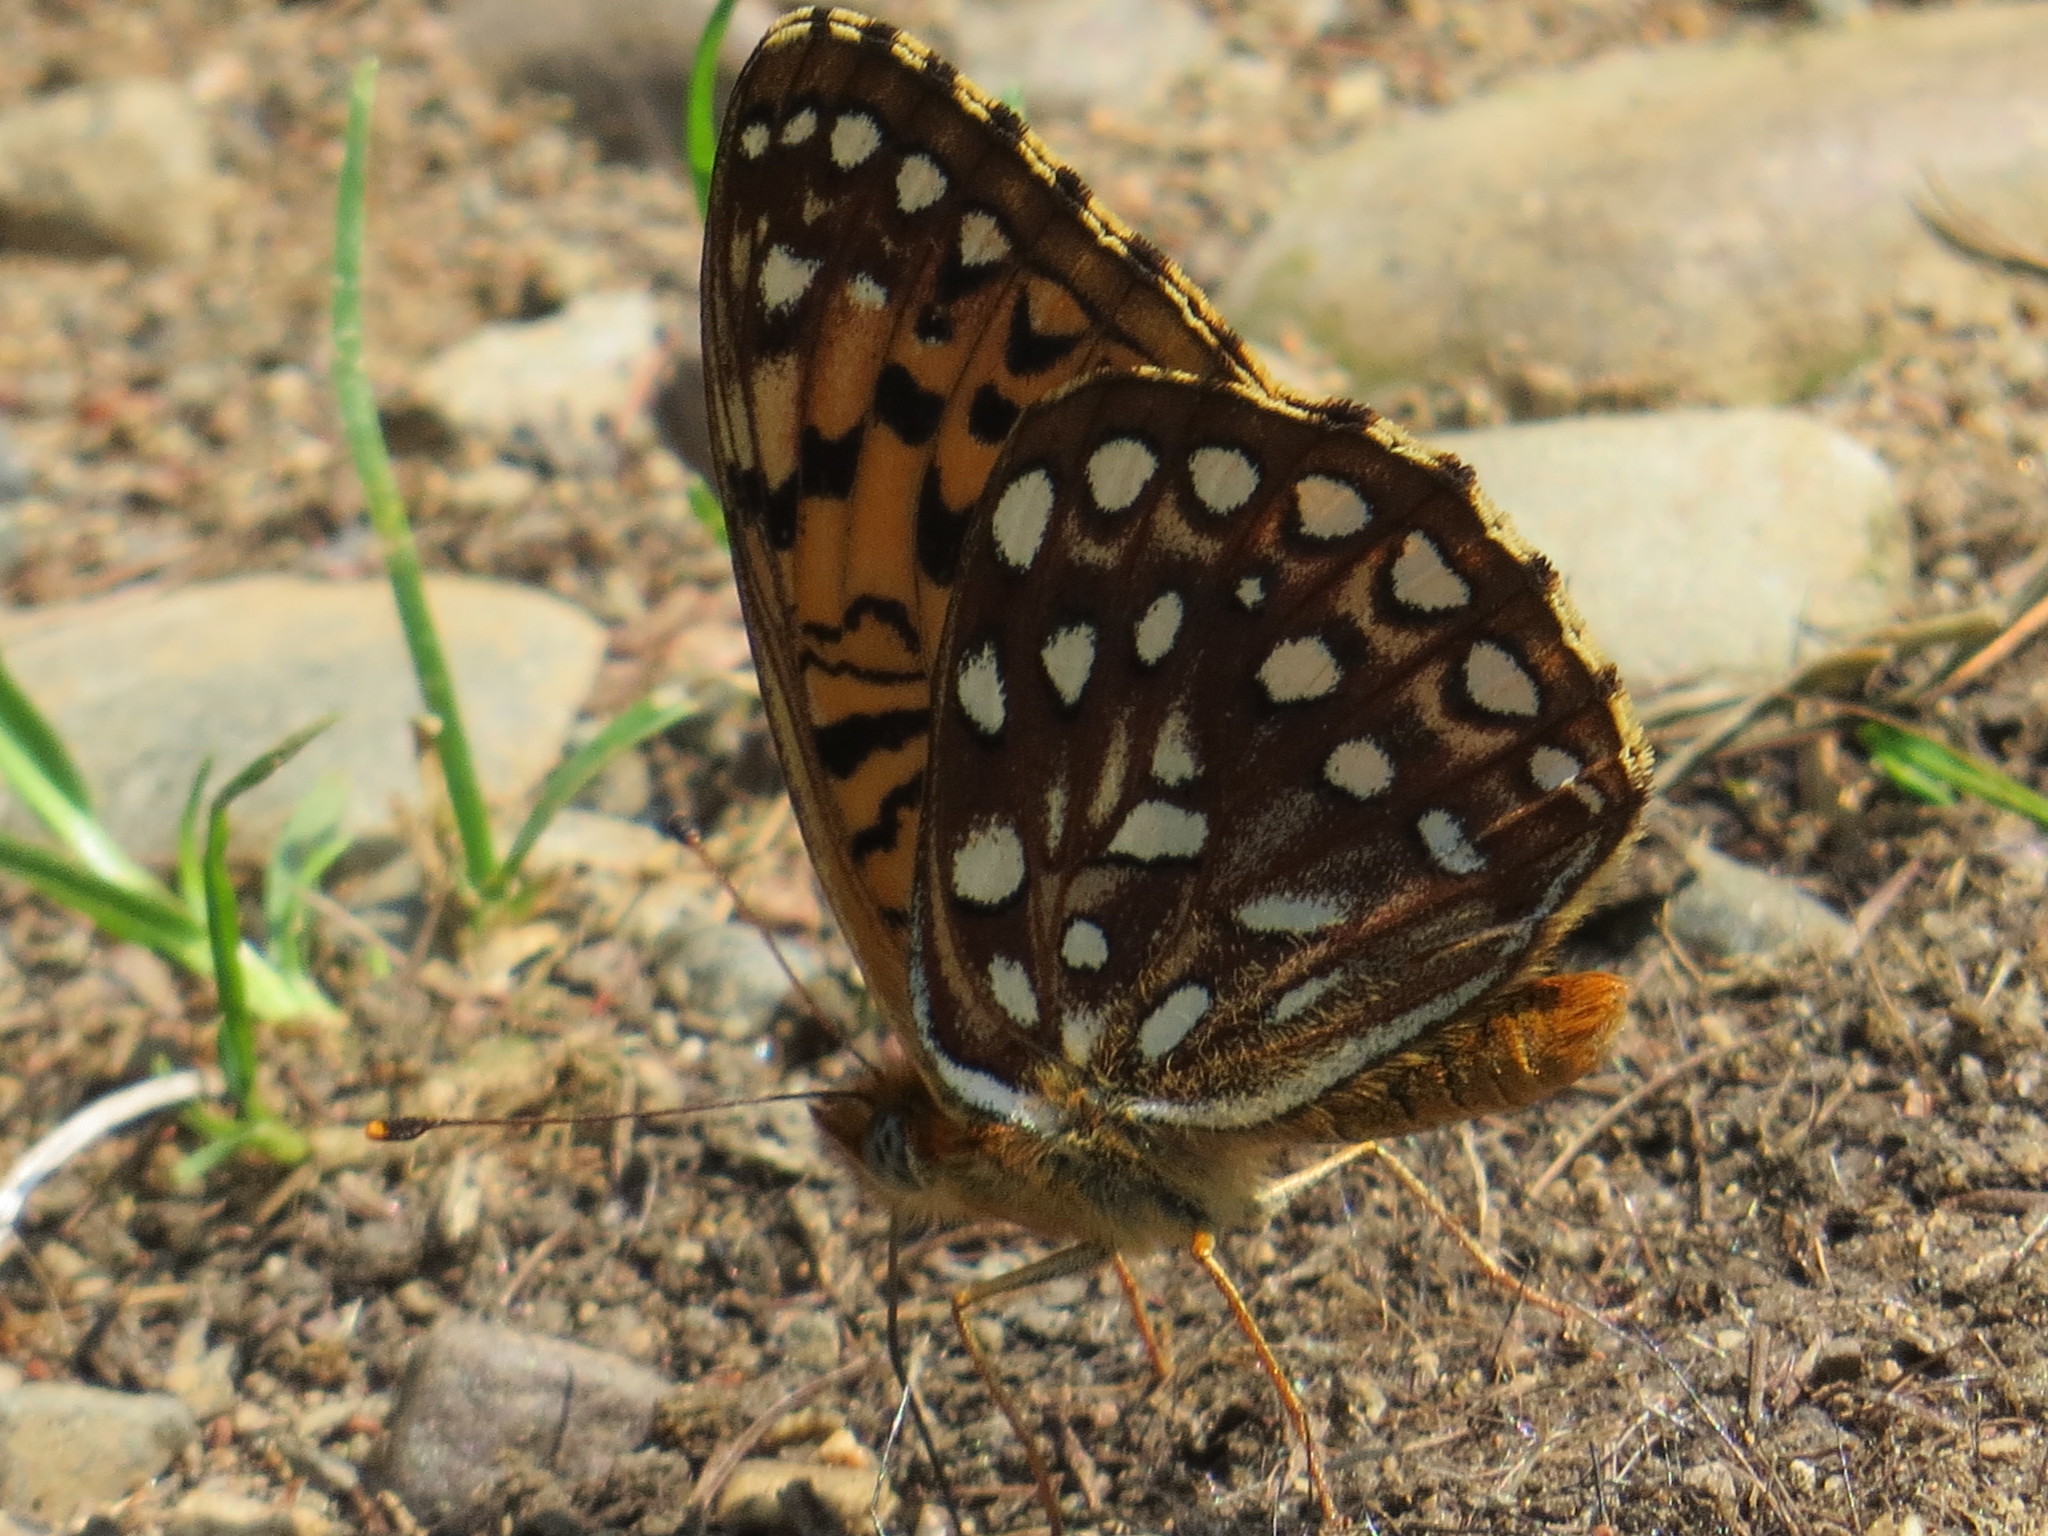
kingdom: Animalia
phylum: Arthropoda
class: Insecta
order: Lepidoptera
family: Nymphalidae
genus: Speyeria
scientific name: Speyeria atlantis
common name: Atlantis fritillary
